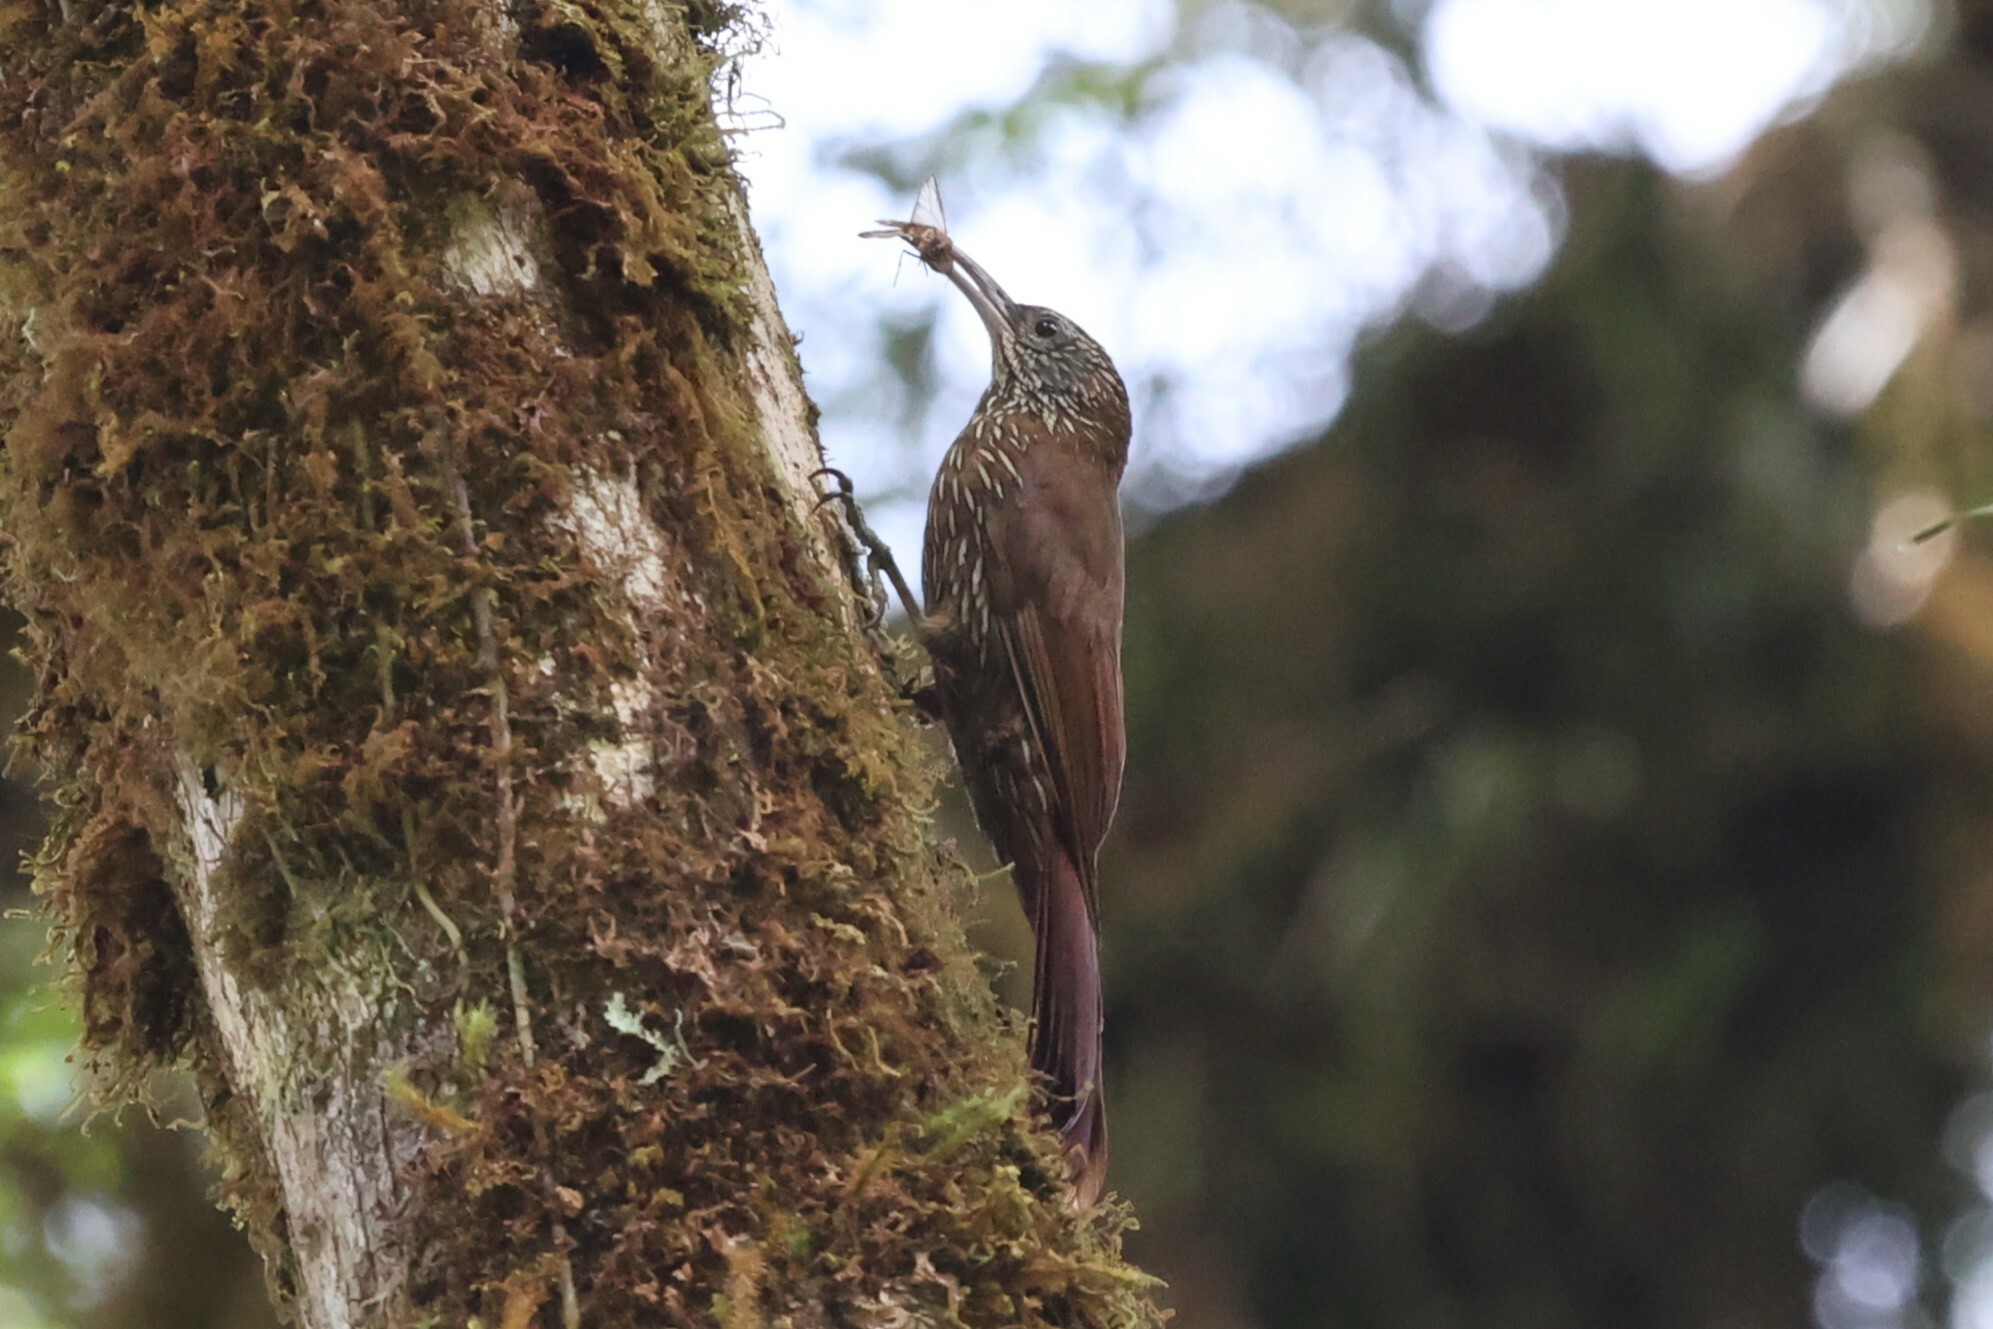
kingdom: Animalia
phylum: Chordata
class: Aves
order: Passeriformes
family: Furnariidae
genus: Lepidocolaptes
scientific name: Lepidocolaptes lacrymiger
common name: Montane woodcreeper
